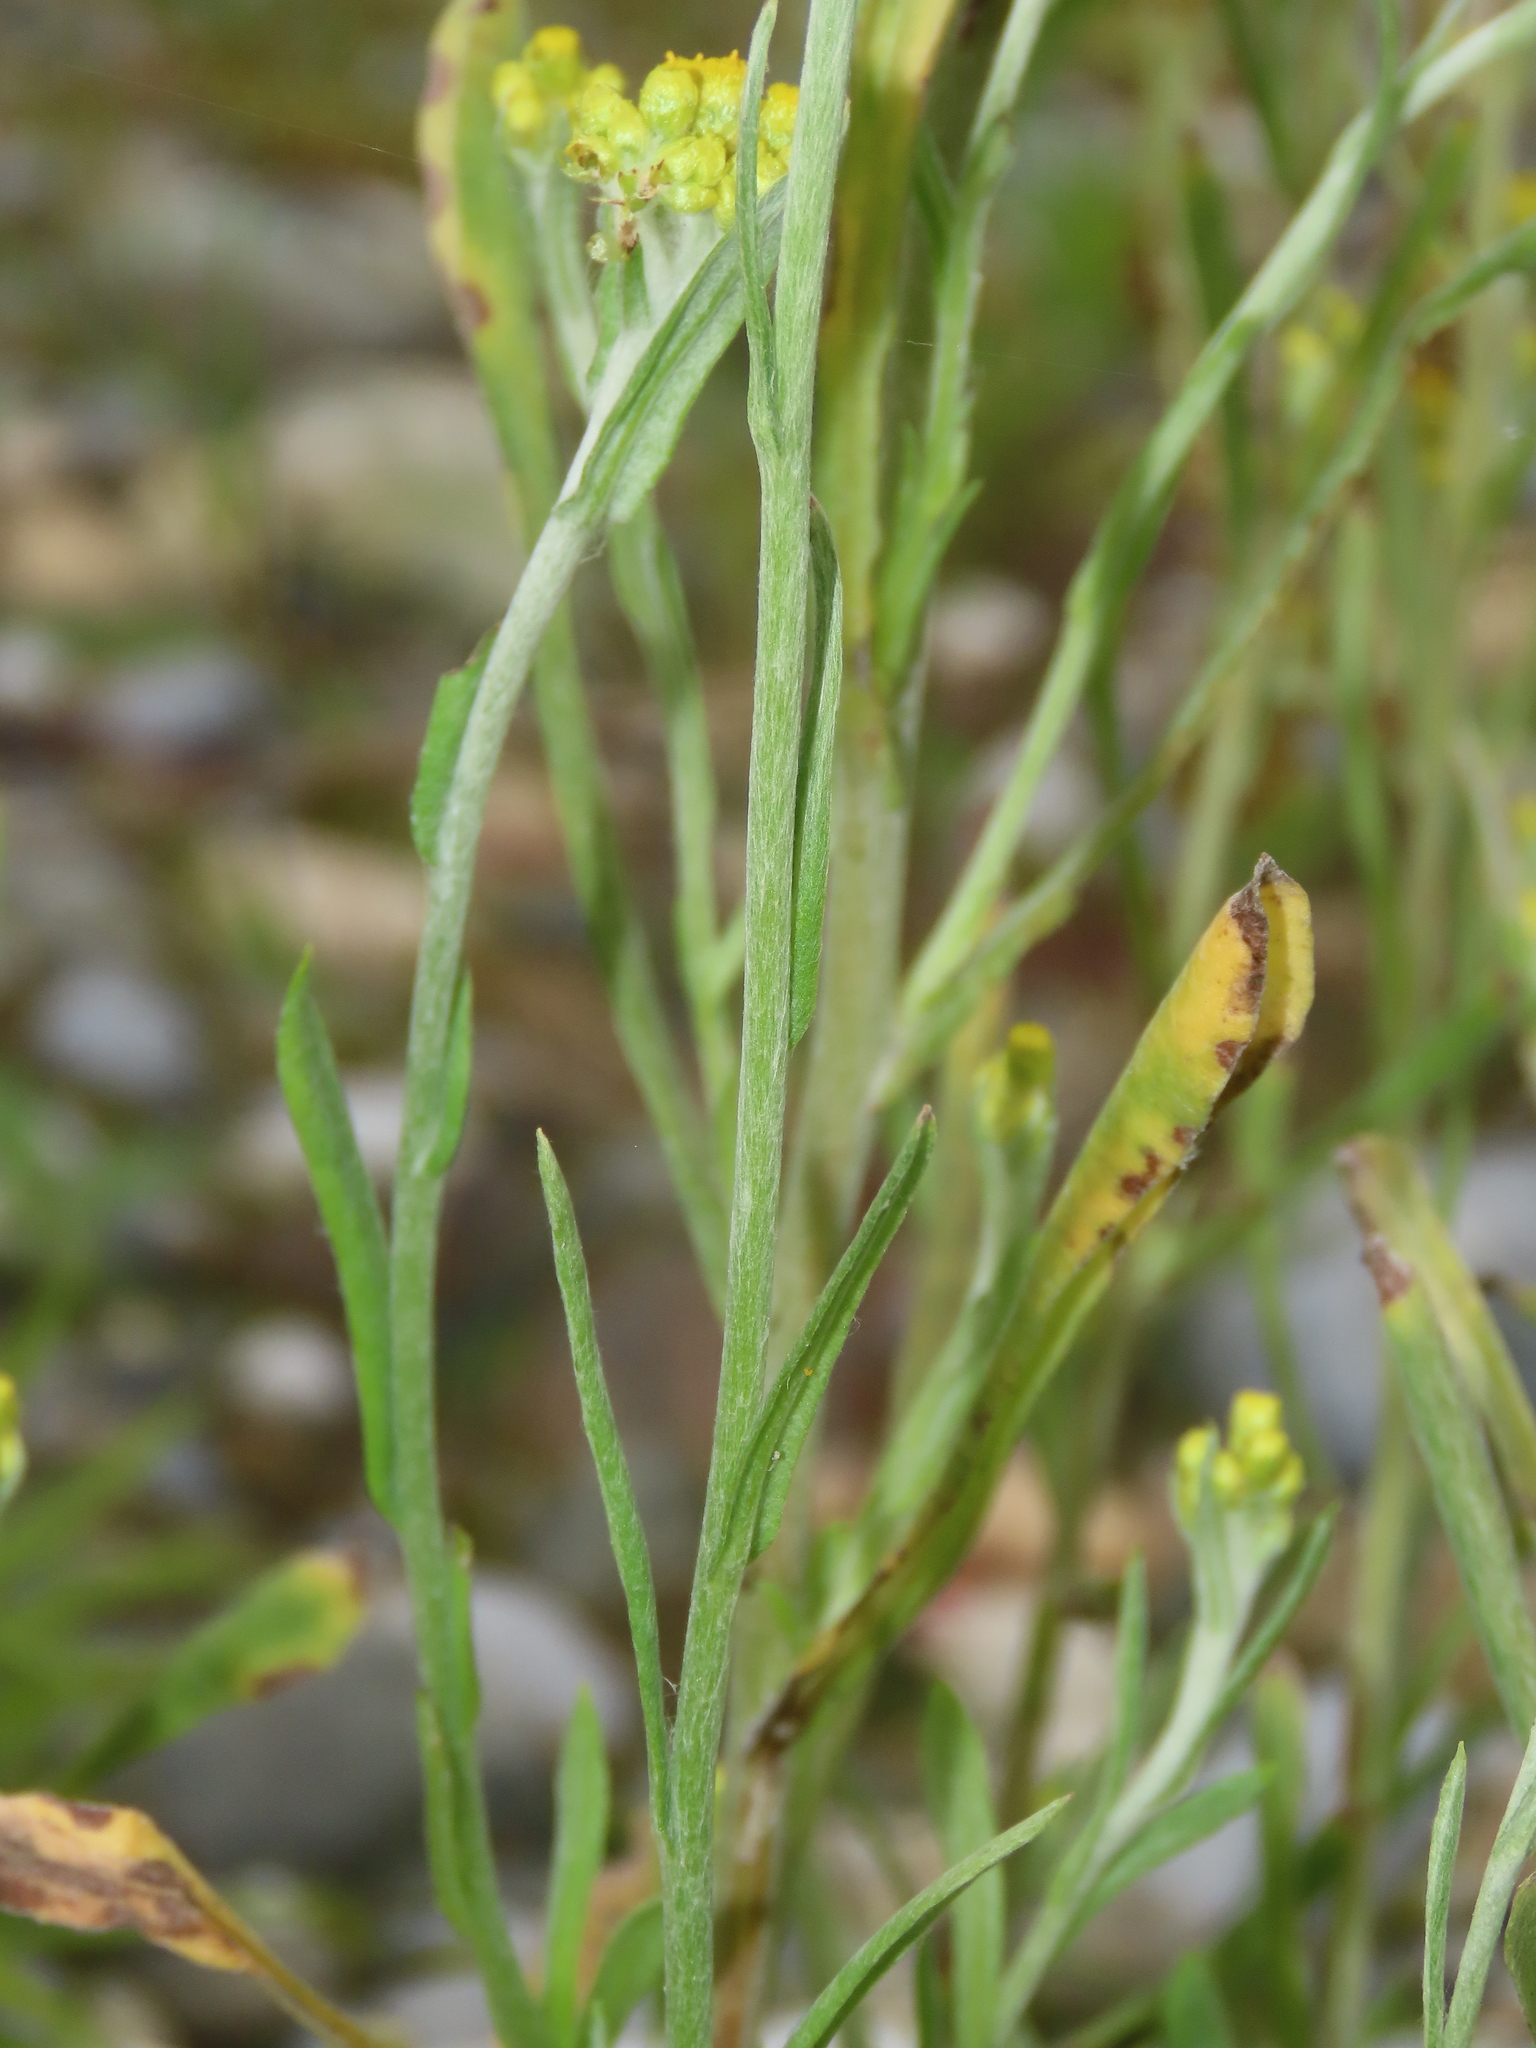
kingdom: Plantae
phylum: Tracheophyta
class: Magnoliopsida
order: Asterales
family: Asteraceae
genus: Pseudognaphalium
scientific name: Pseudognaphalium affine
